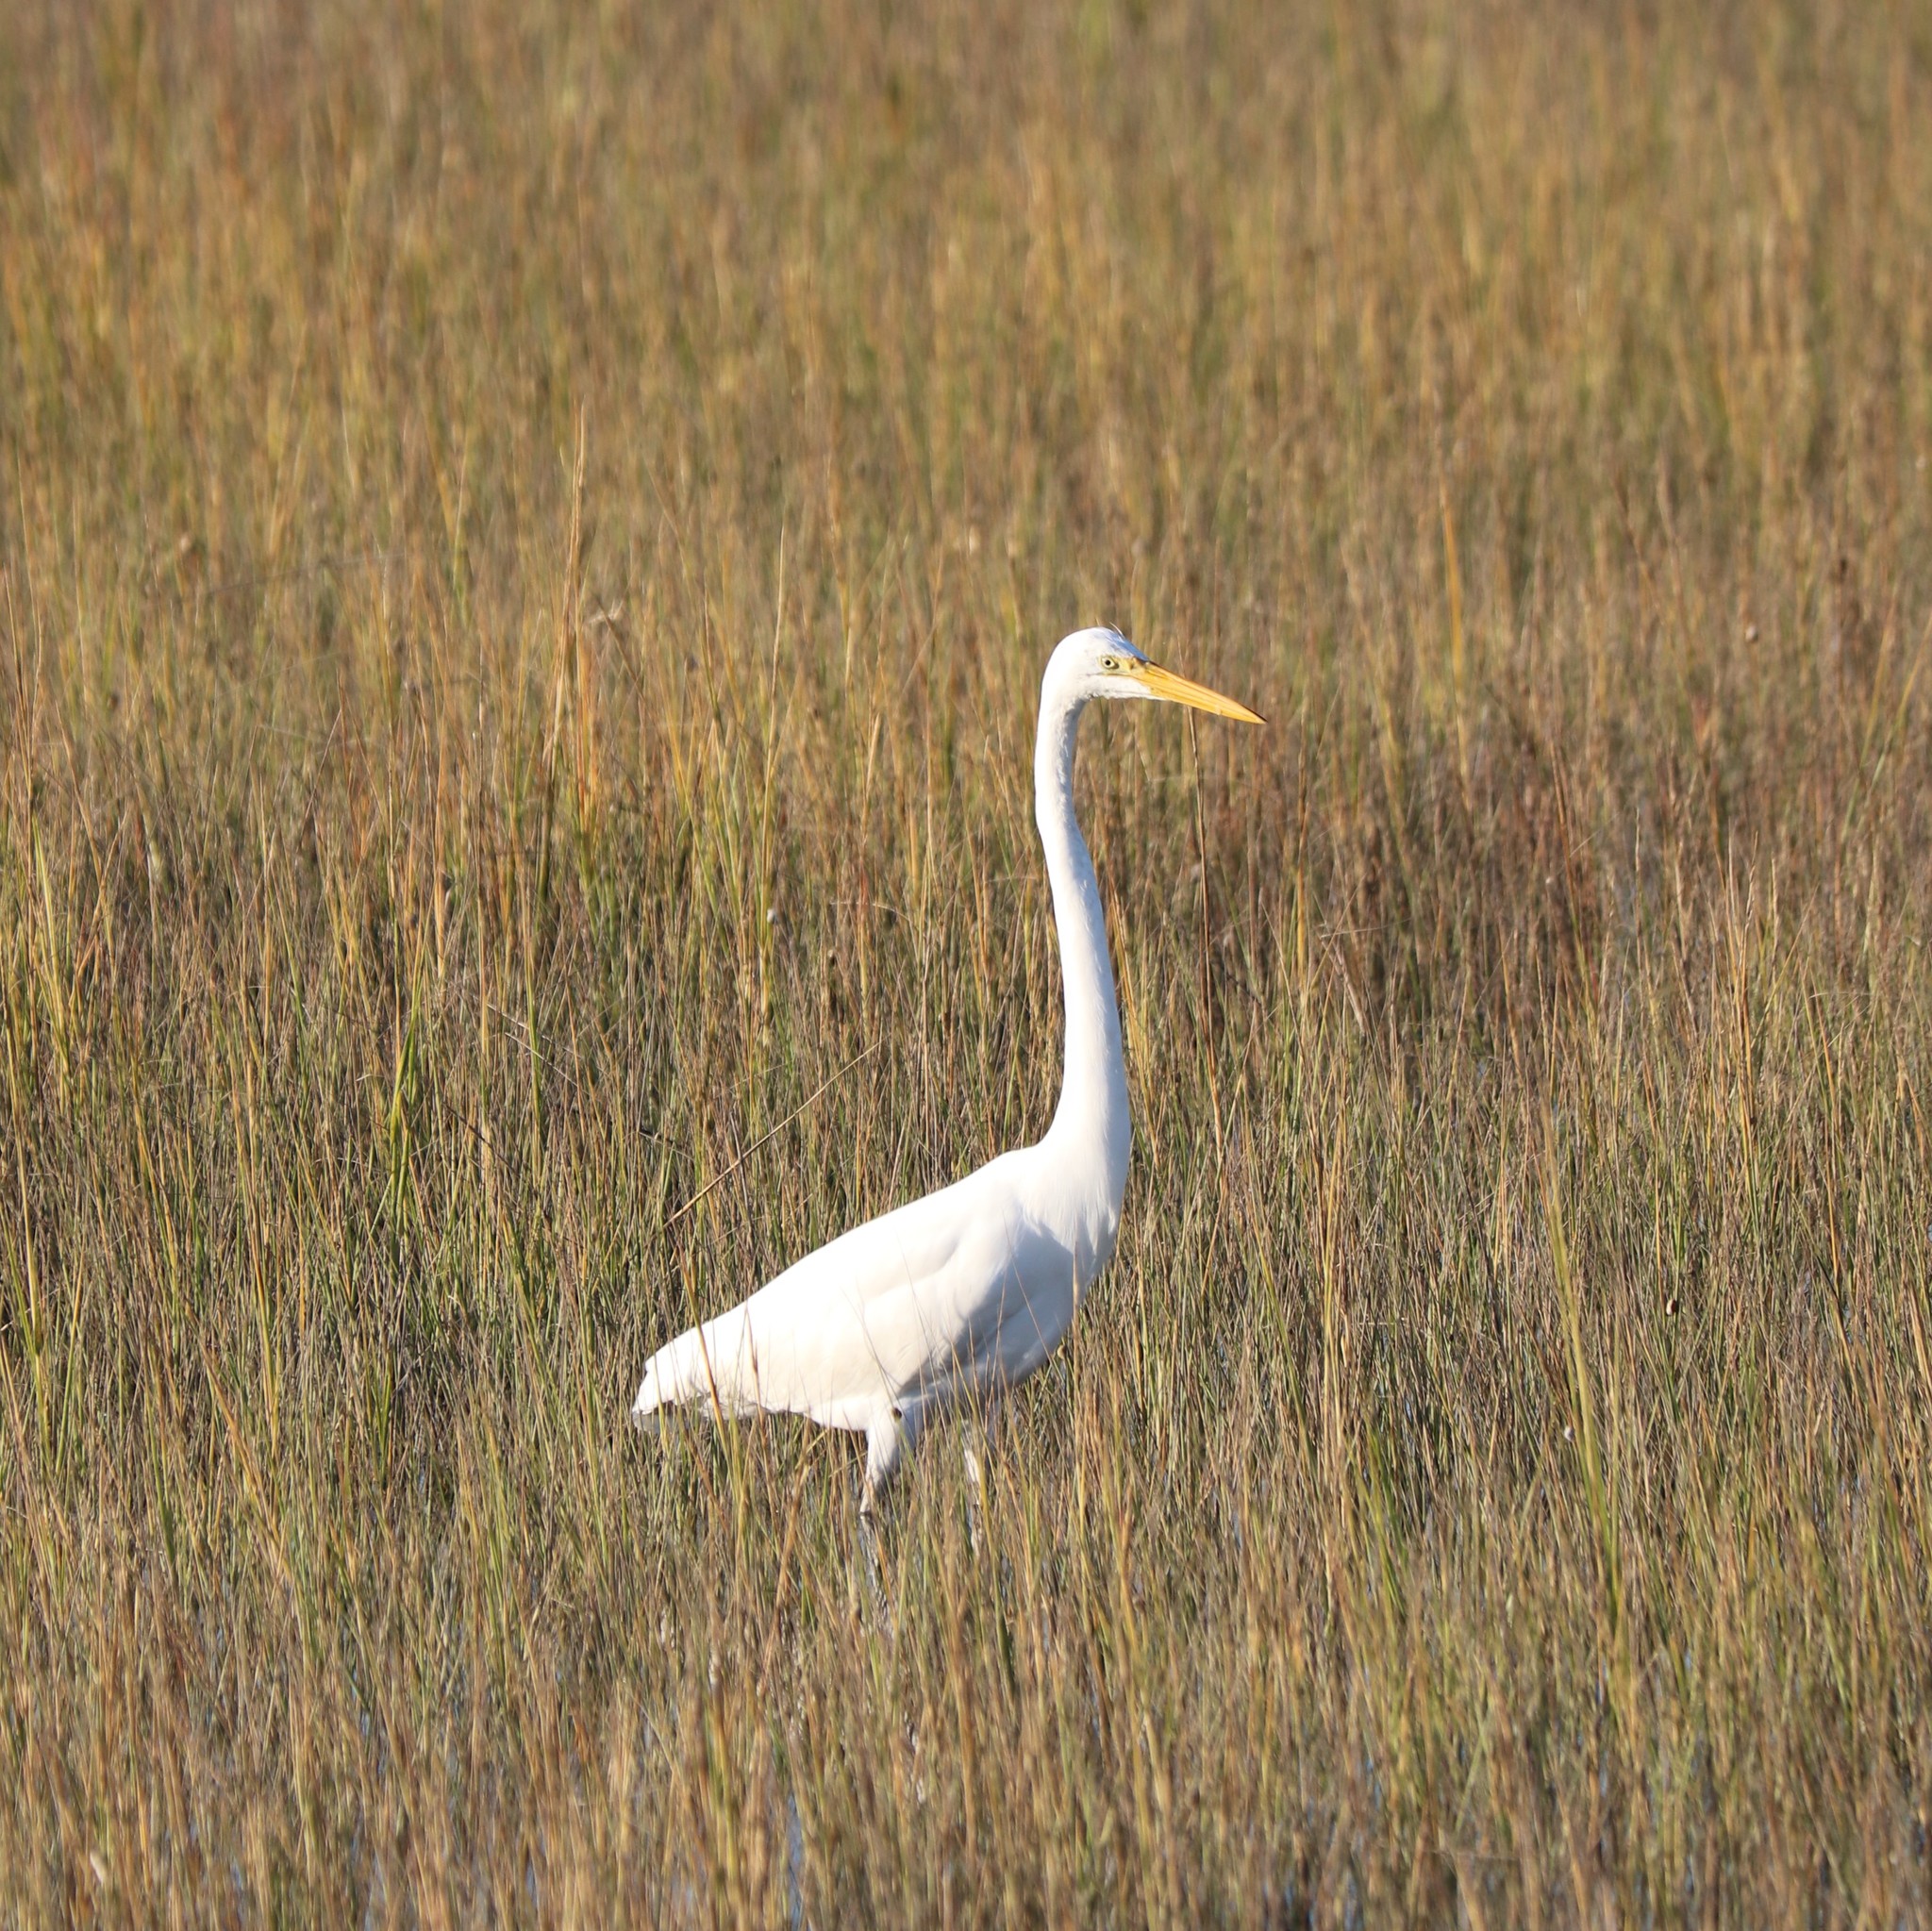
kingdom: Animalia
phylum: Chordata
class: Aves
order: Pelecaniformes
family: Ardeidae
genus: Ardea
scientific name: Ardea alba
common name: Great egret
